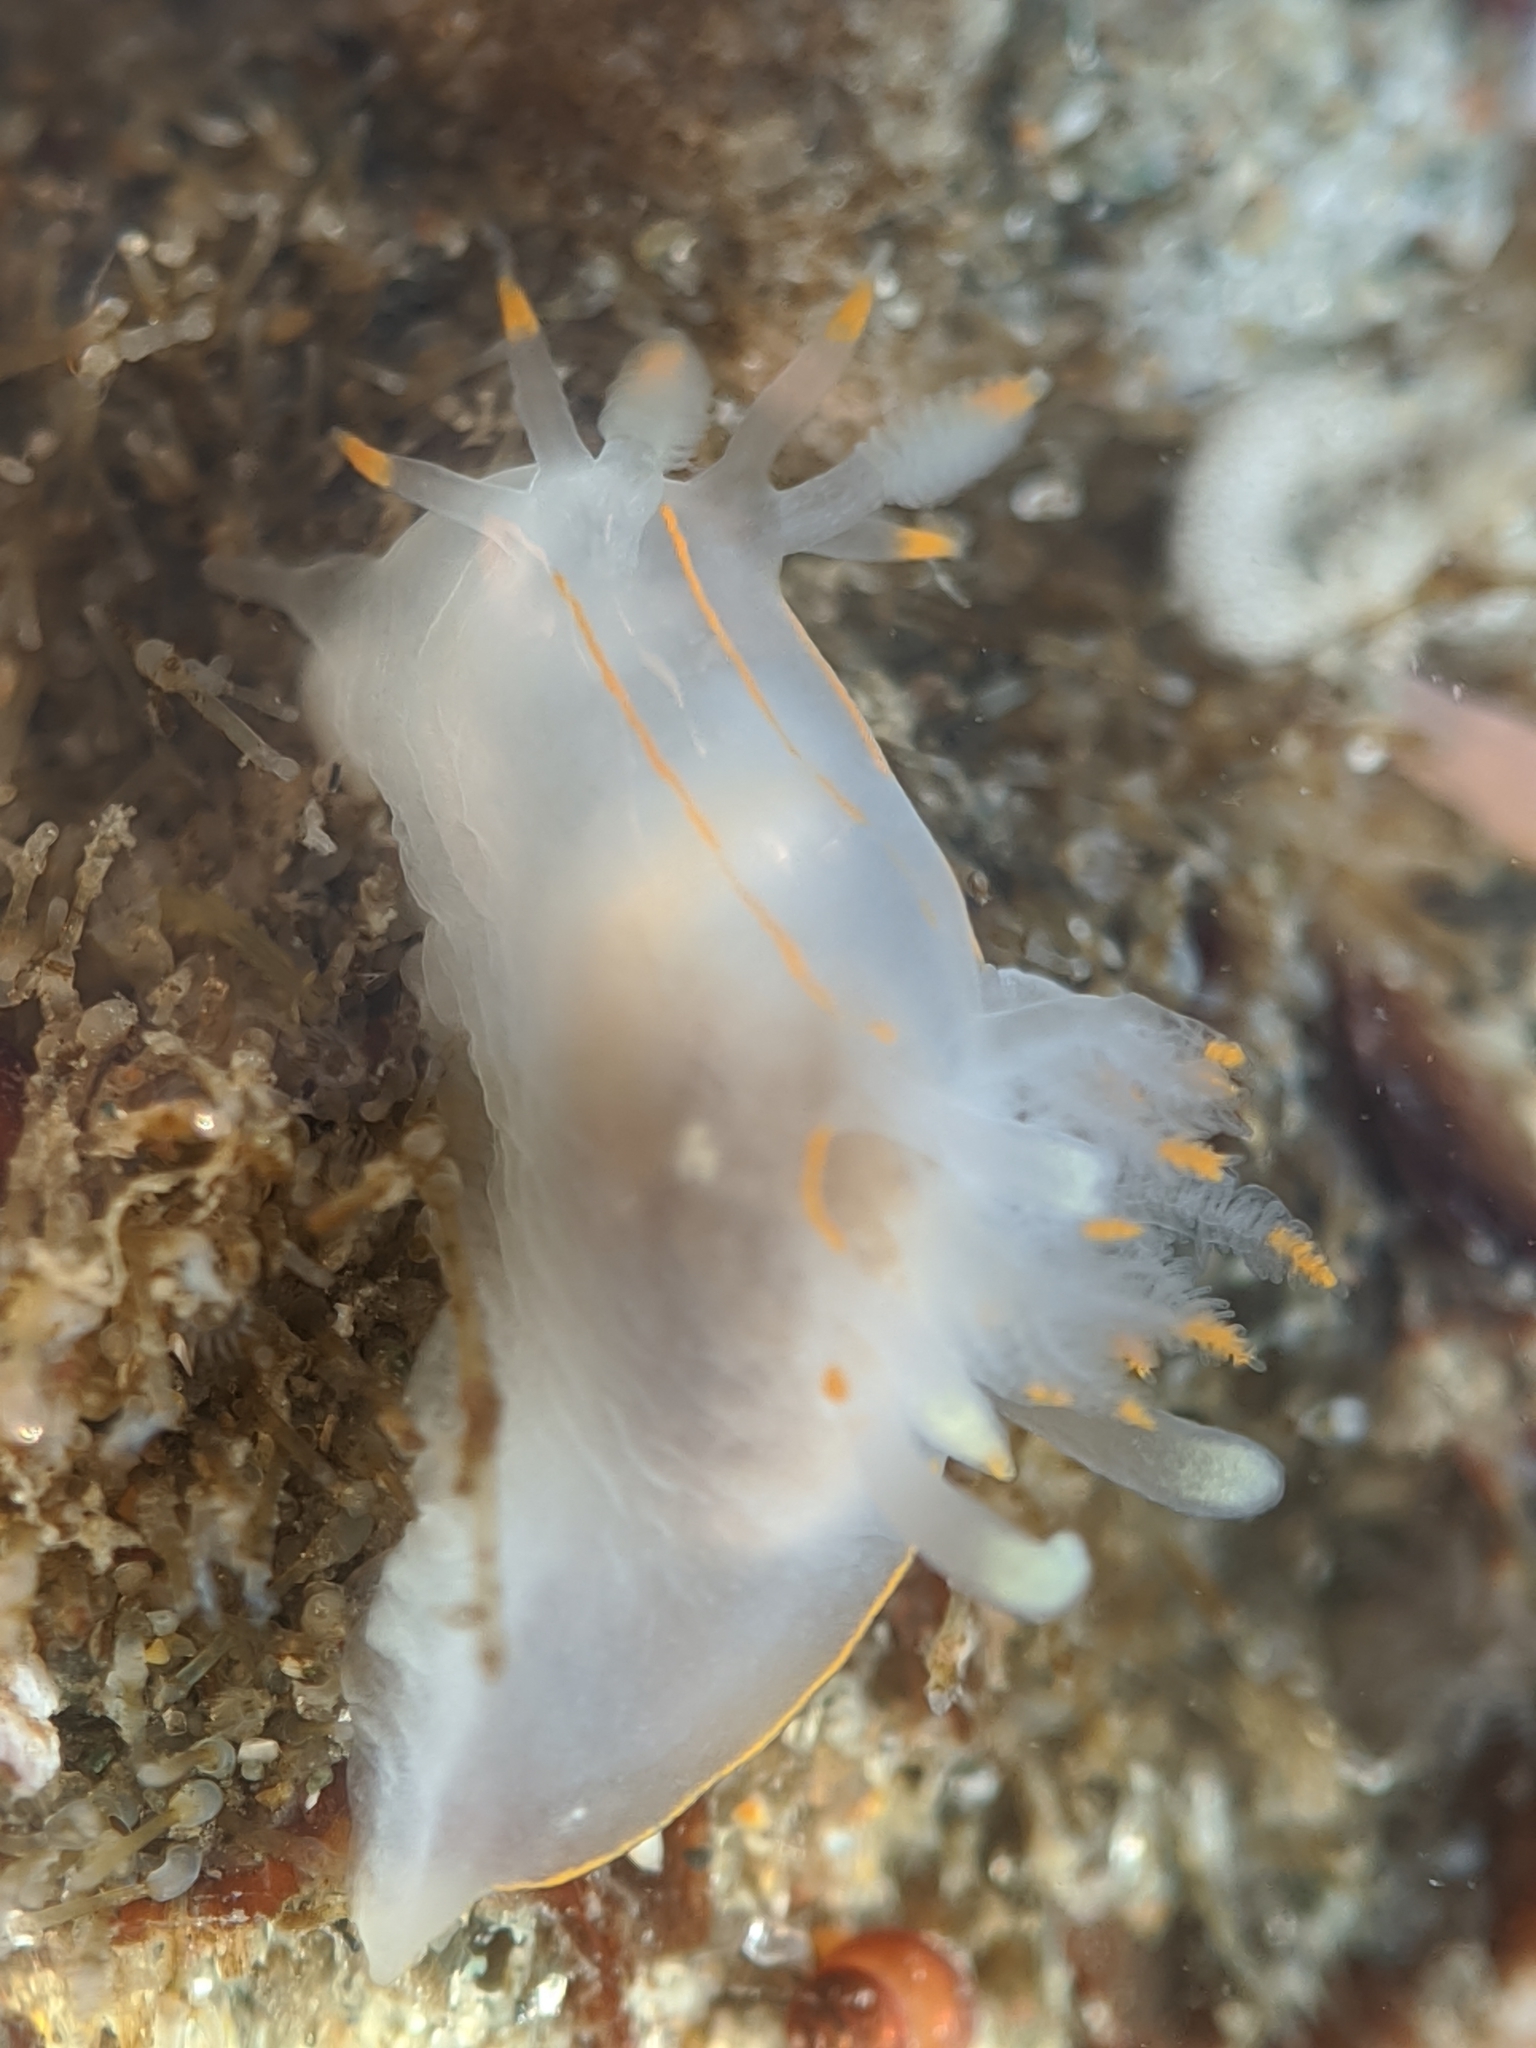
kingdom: Animalia
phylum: Mollusca
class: Gastropoda
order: Nudibranchia
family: Goniodorididae
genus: Ancula
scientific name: Ancula pacifica
